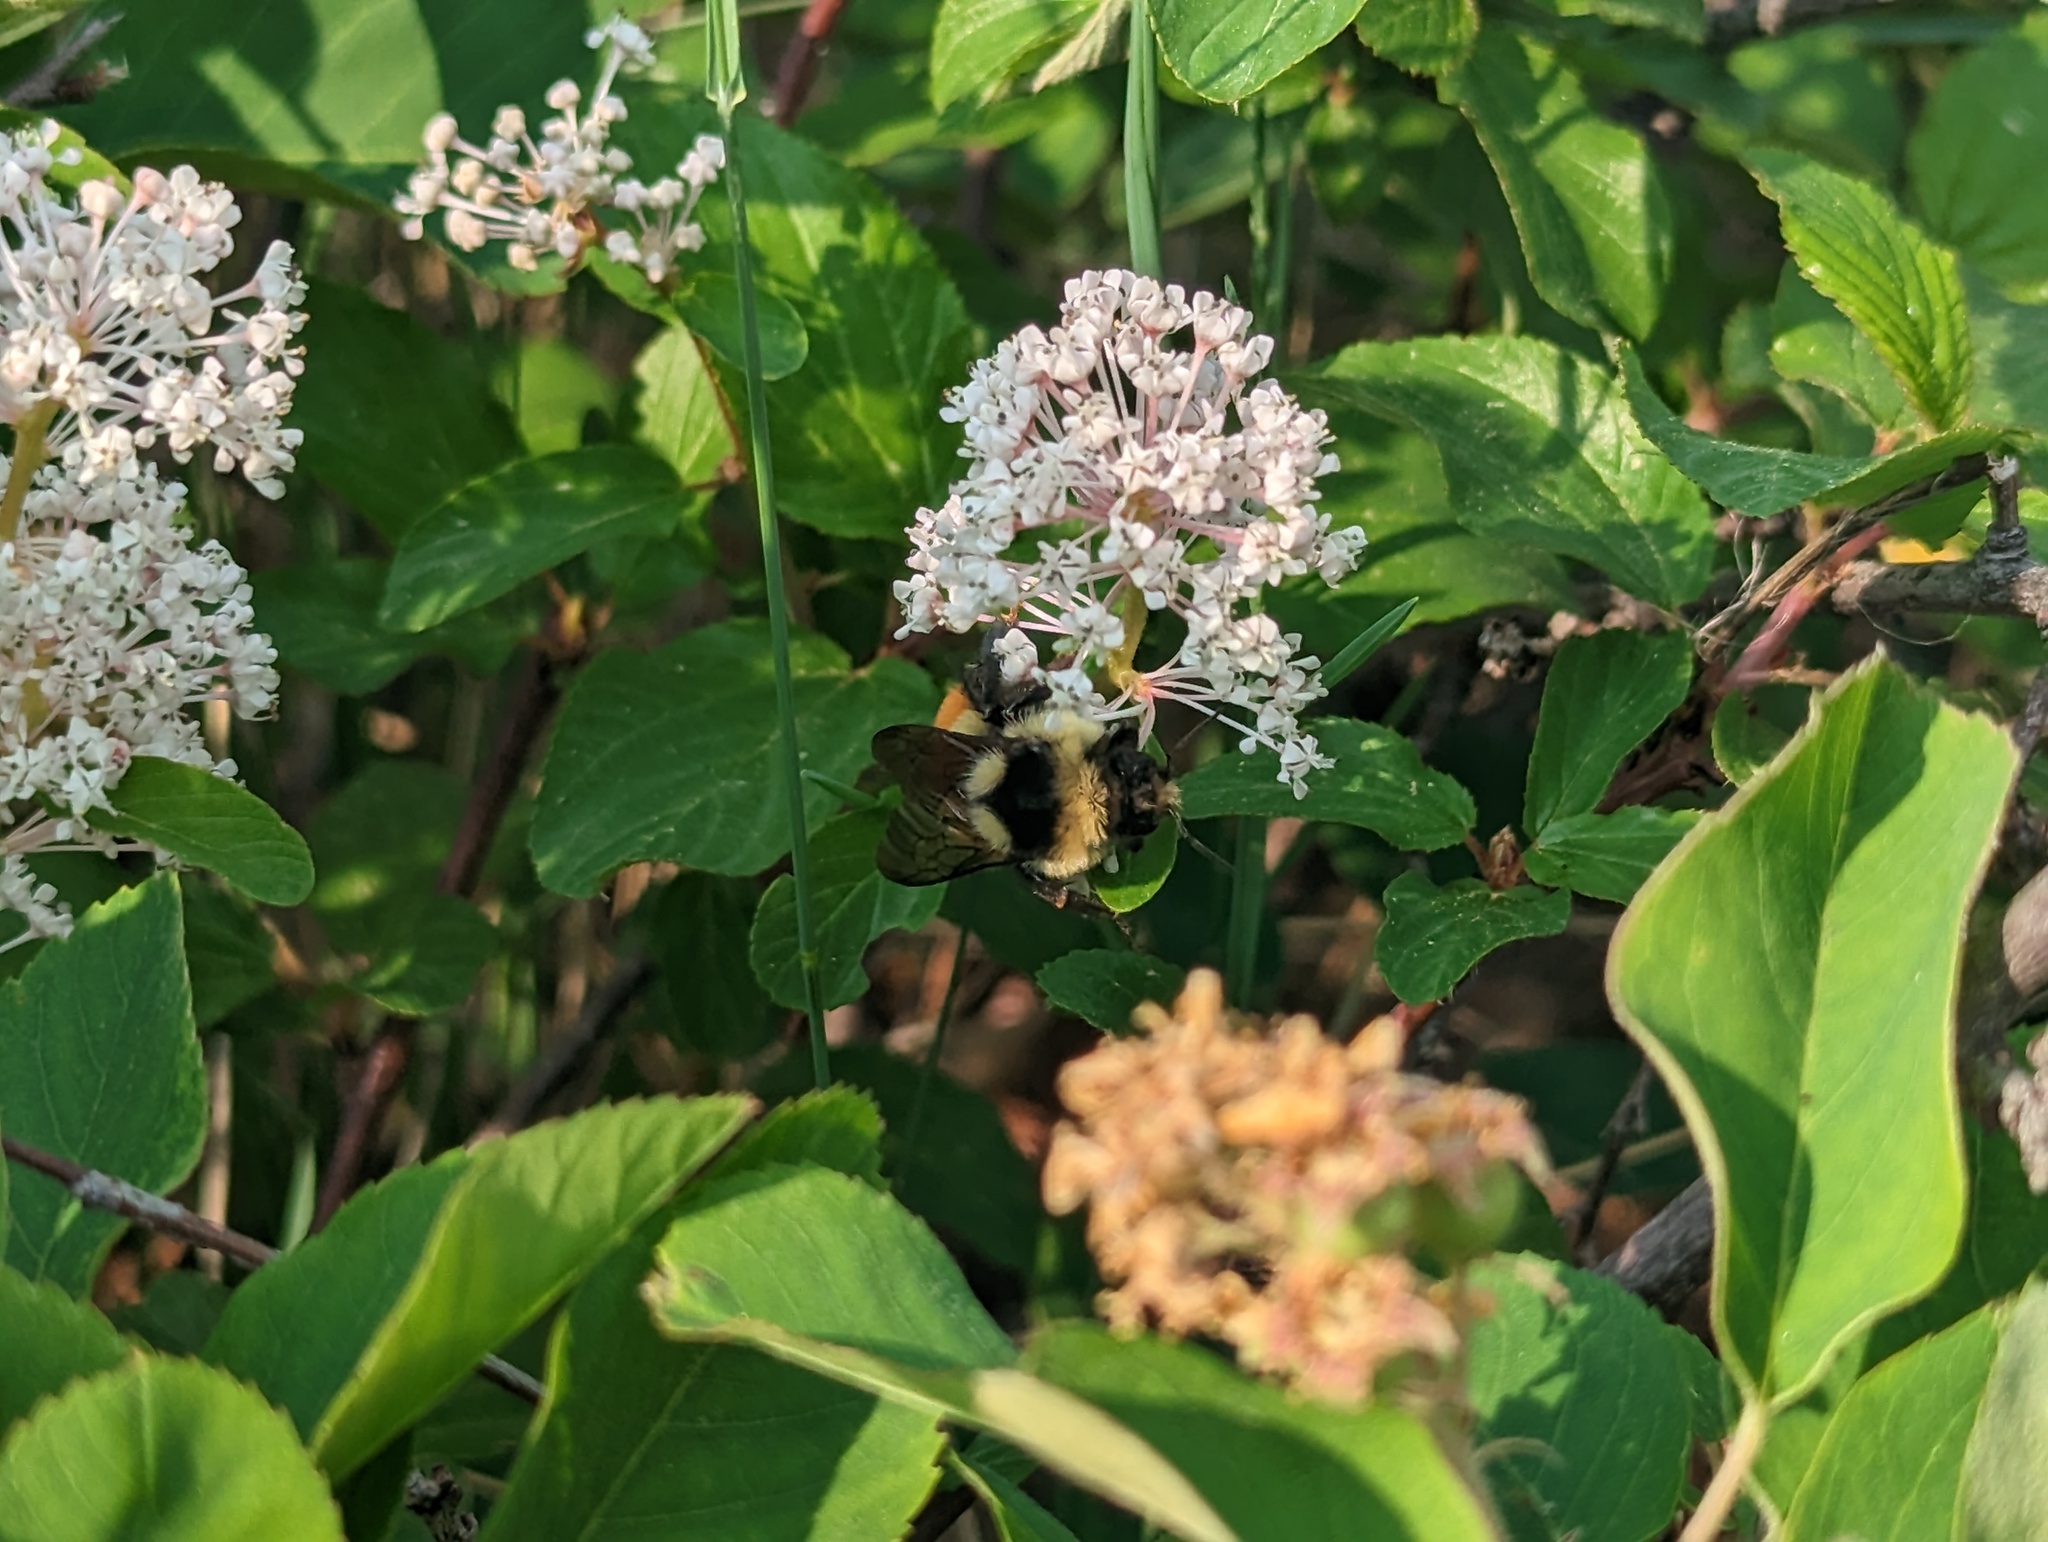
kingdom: Animalia
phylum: Arthropoda
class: Insecta
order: Hymenoptera
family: Apidae
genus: Bombus
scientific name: Bombus ternarius
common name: Tri-colored bumble bee
